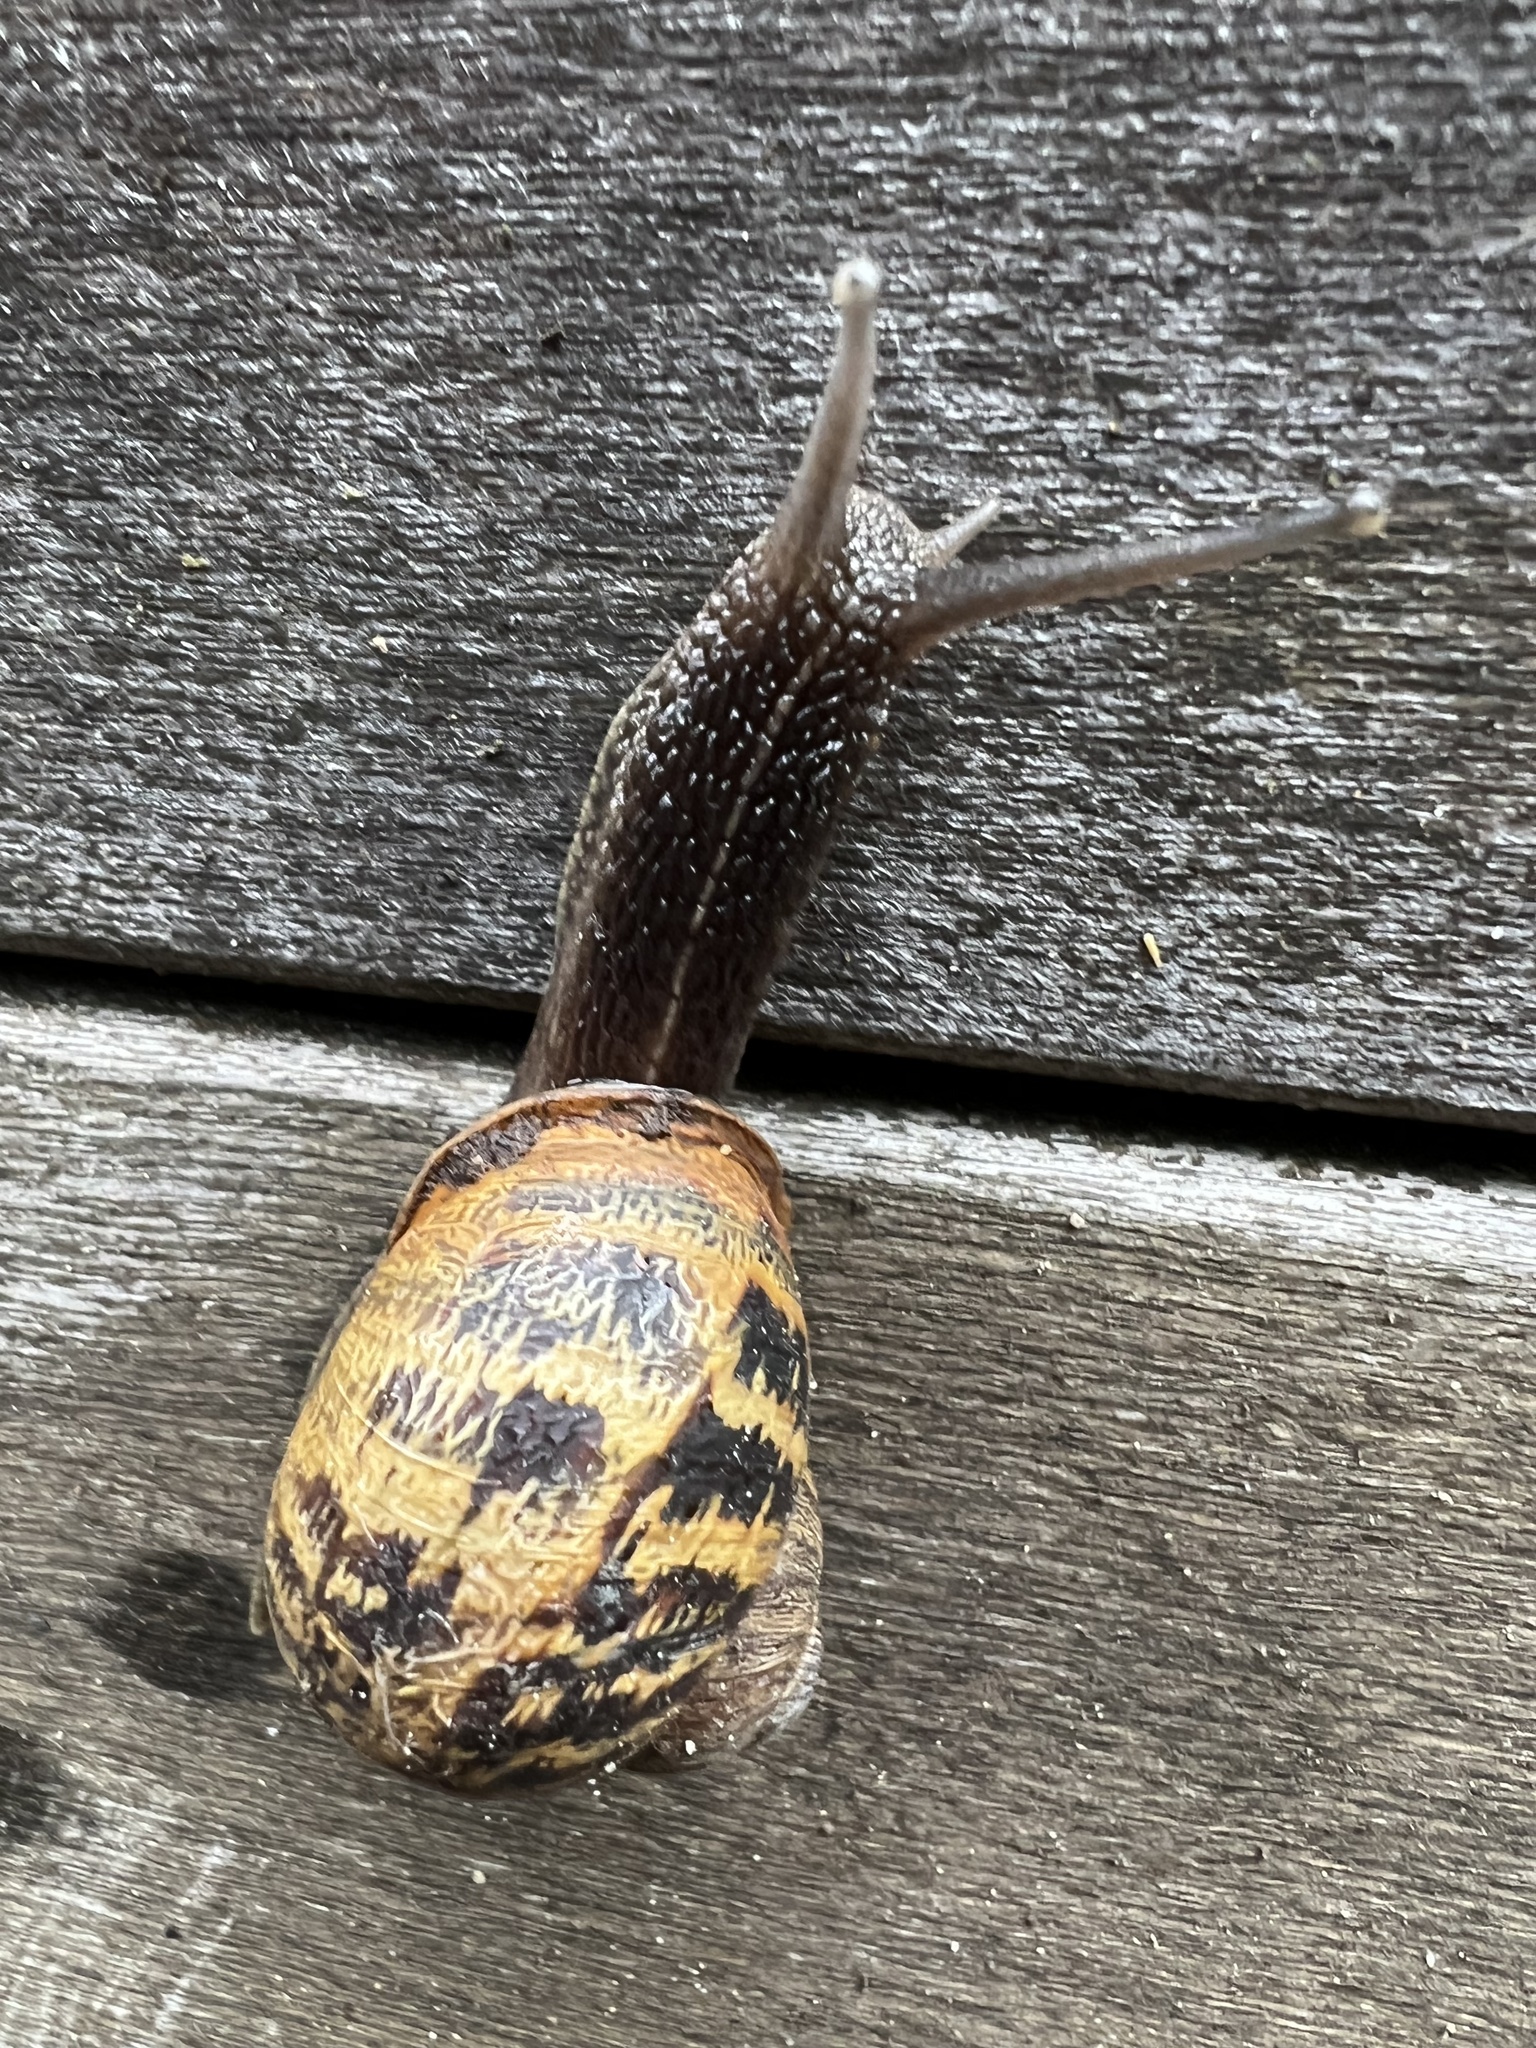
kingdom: Animalia
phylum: Mollusca
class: Gastropoda
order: Stylommatophora
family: Helicidae
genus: Cornu
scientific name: Cornu aspersum
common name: Brown garden snail
